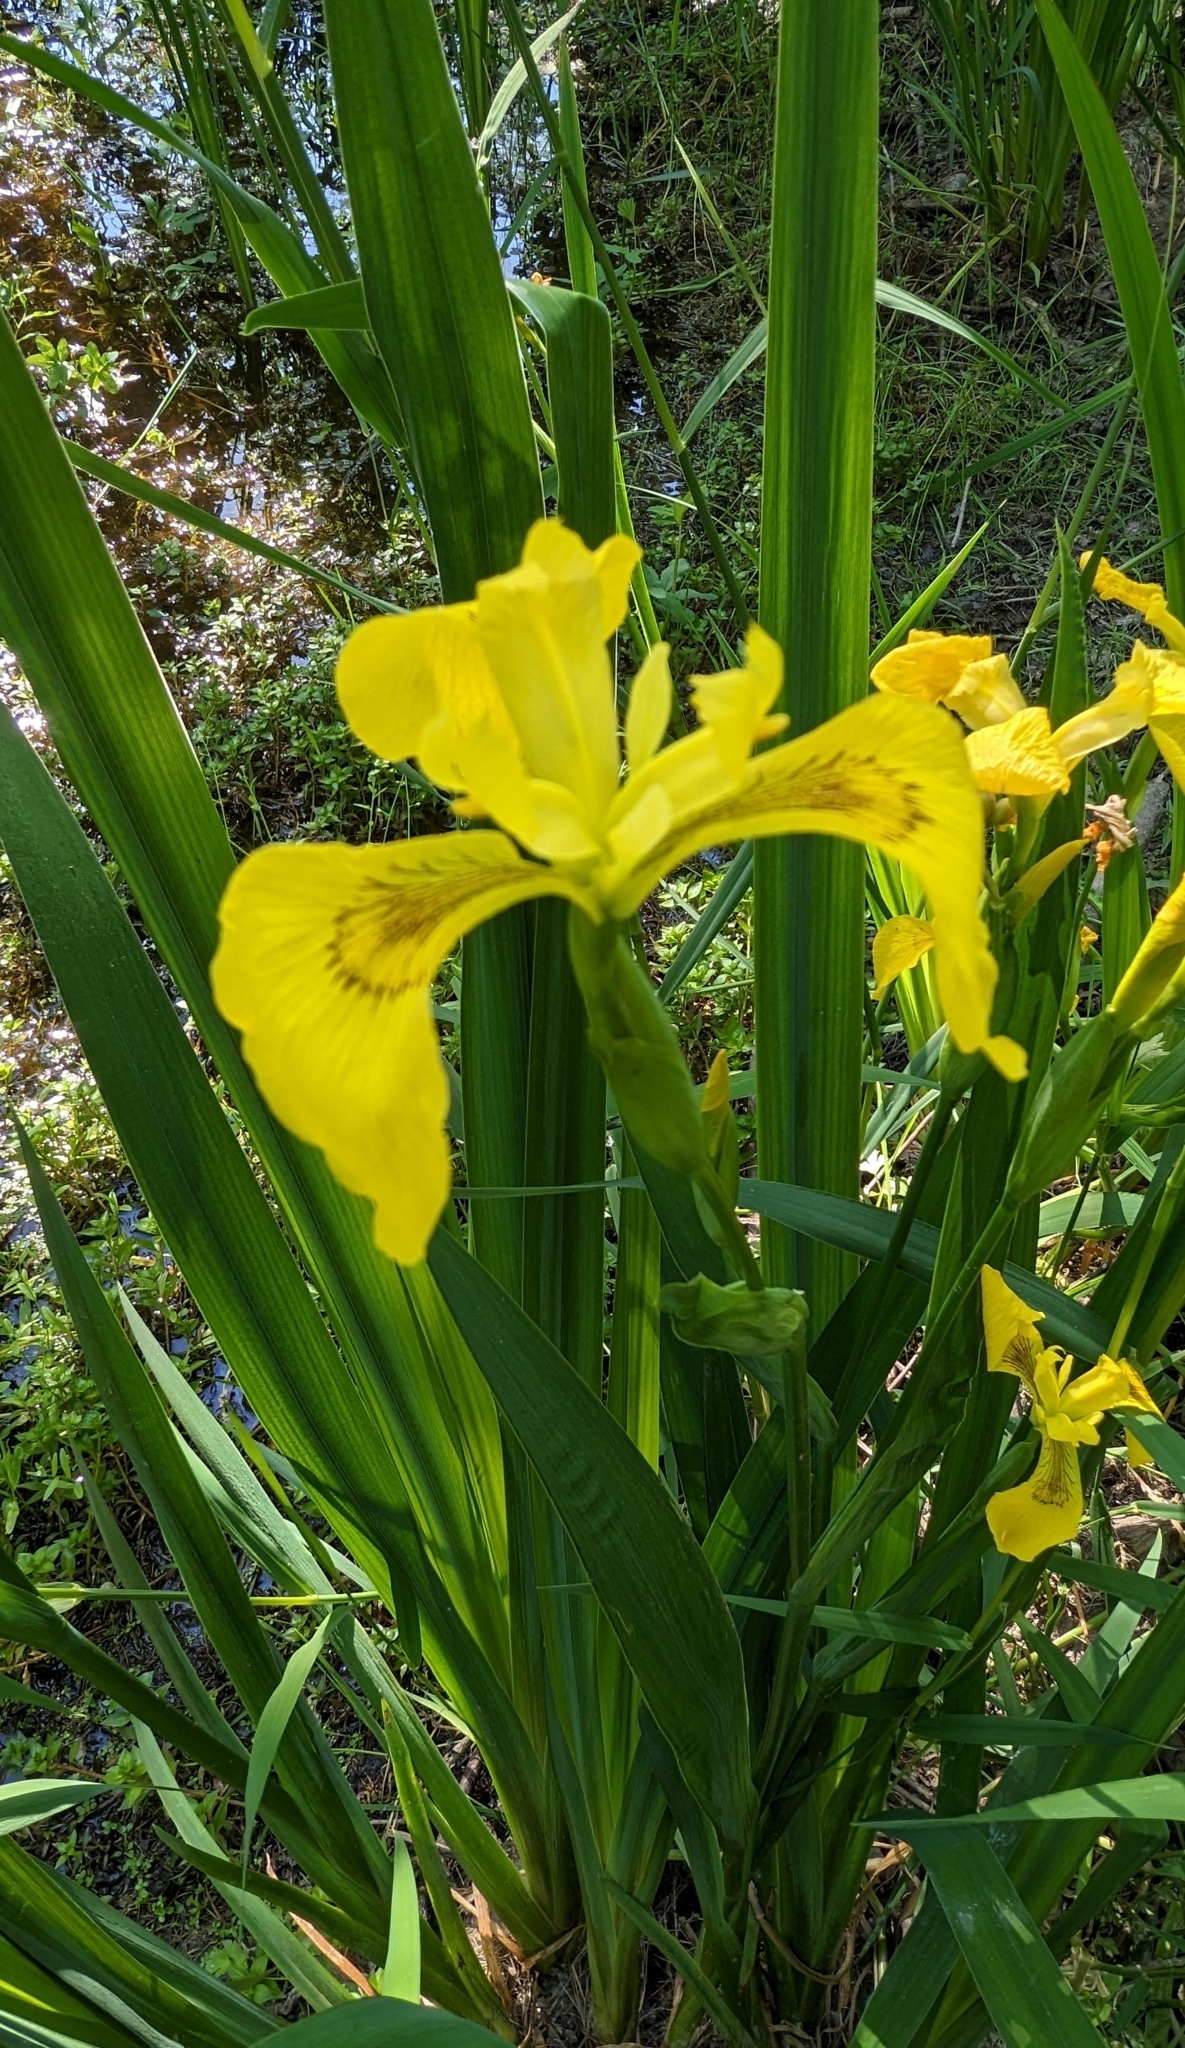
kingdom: Plantae
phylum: Tracheophyta
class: Liliopsida
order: Asparagales
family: Iridaceae
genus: Iris
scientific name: Iris pseudacorus
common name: Yellow flag
